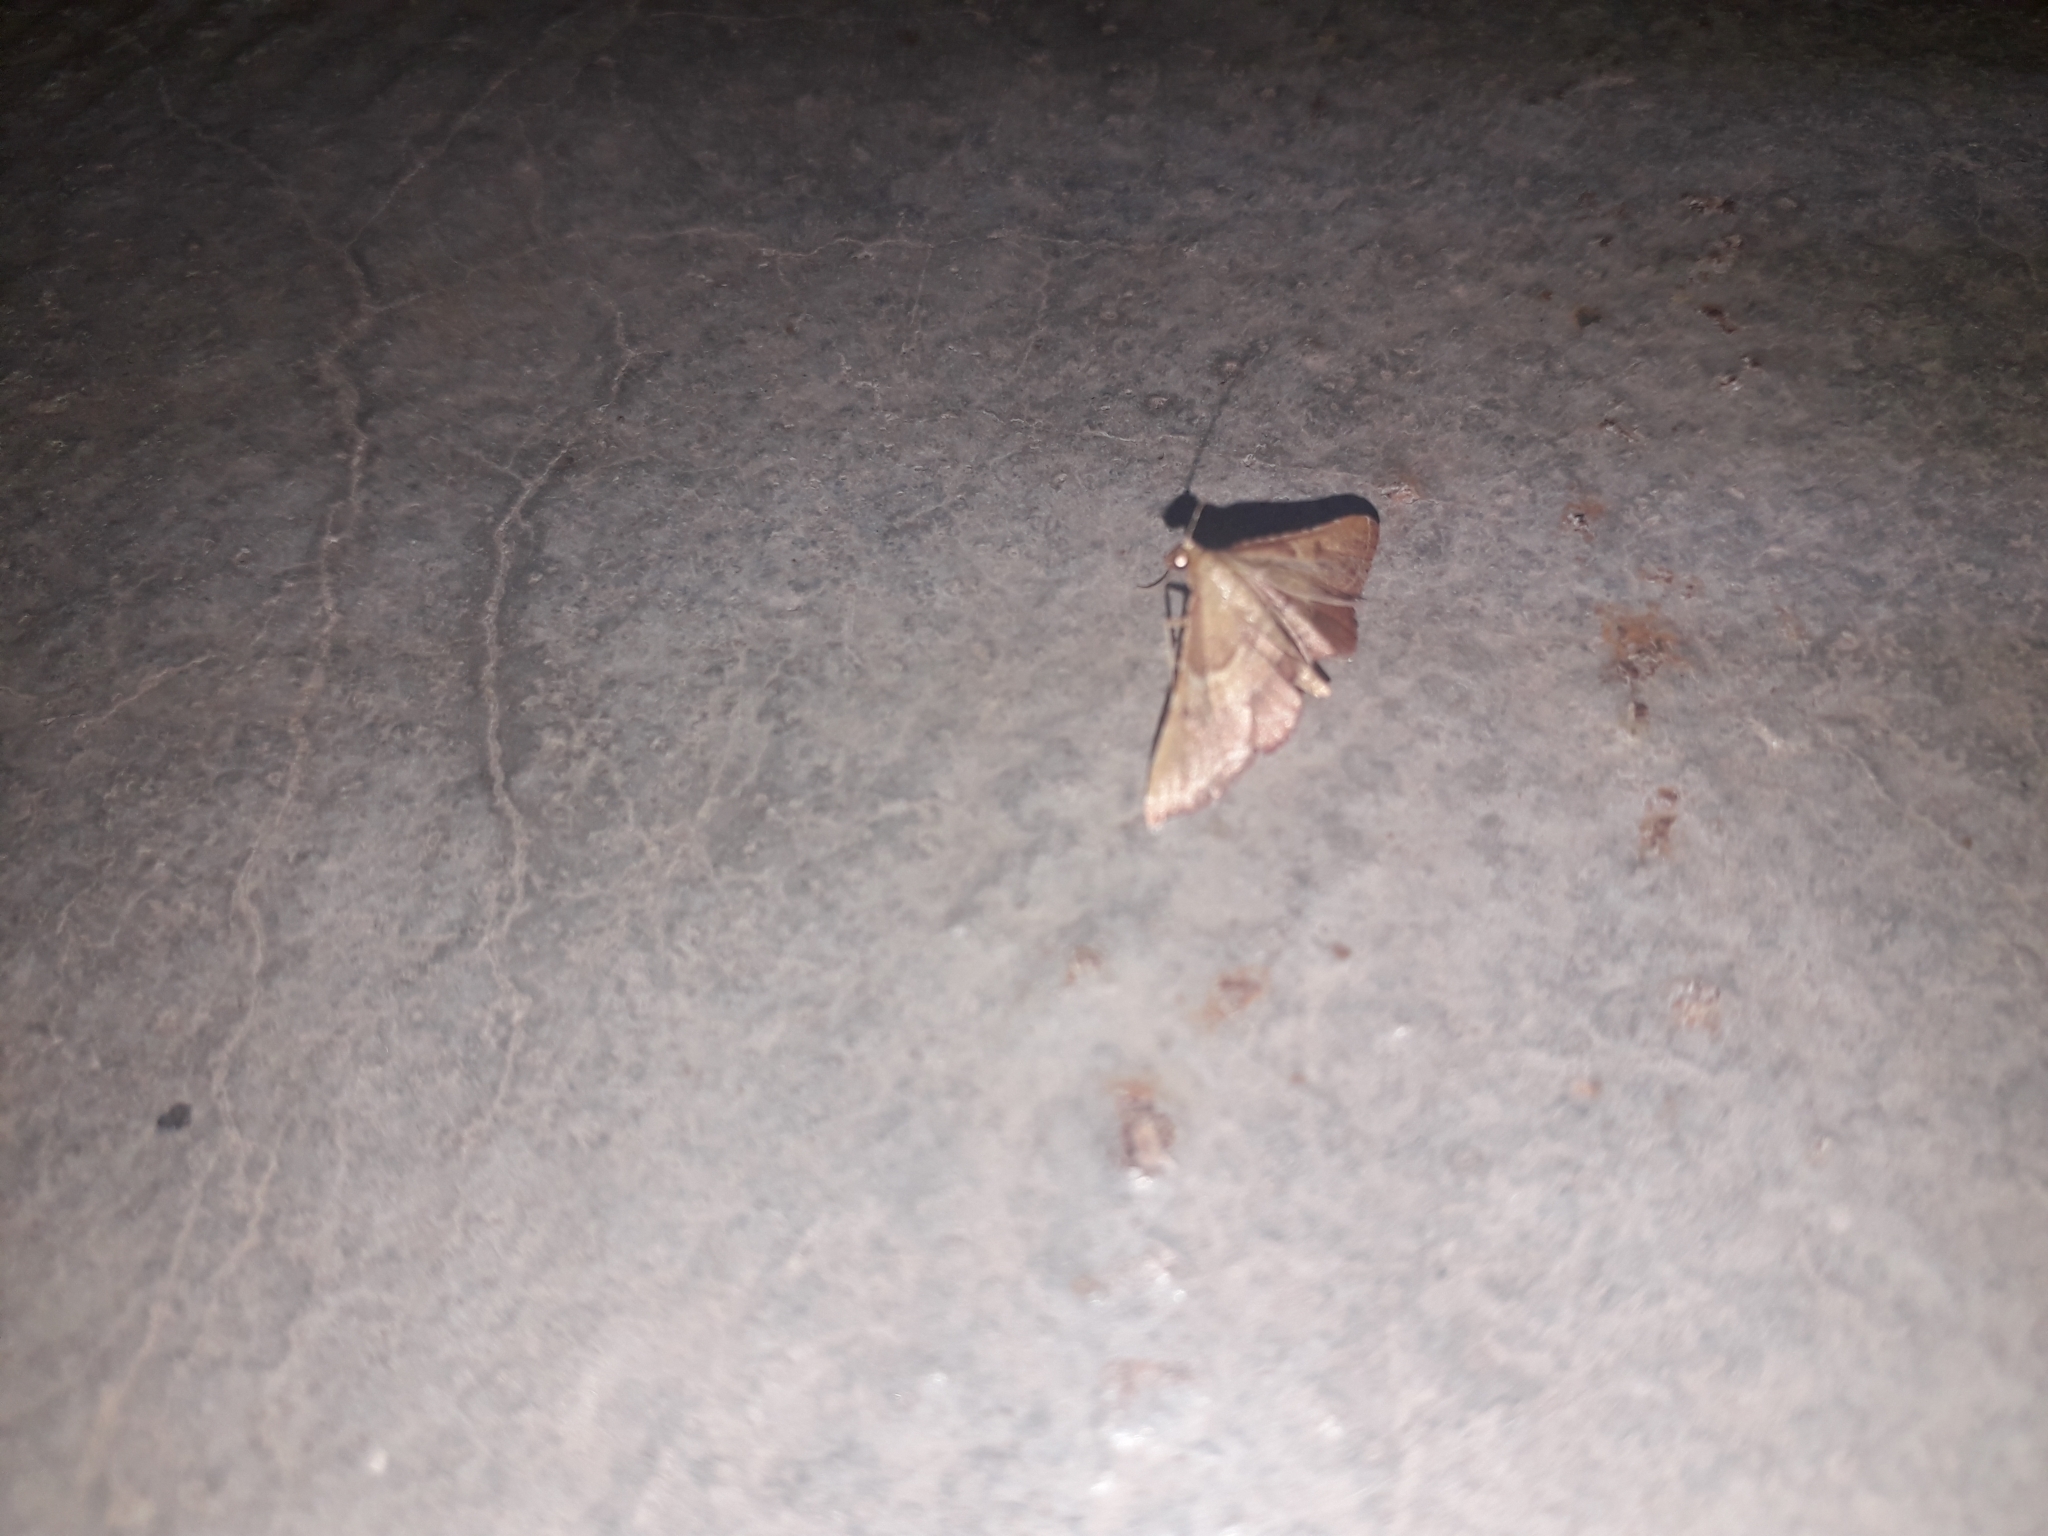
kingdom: Animalia
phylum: Arthropoda
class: Insecta
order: Lepidoptera
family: Pyralidae
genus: Endotricha
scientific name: Endotricha flammealis
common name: Rosy tabby
